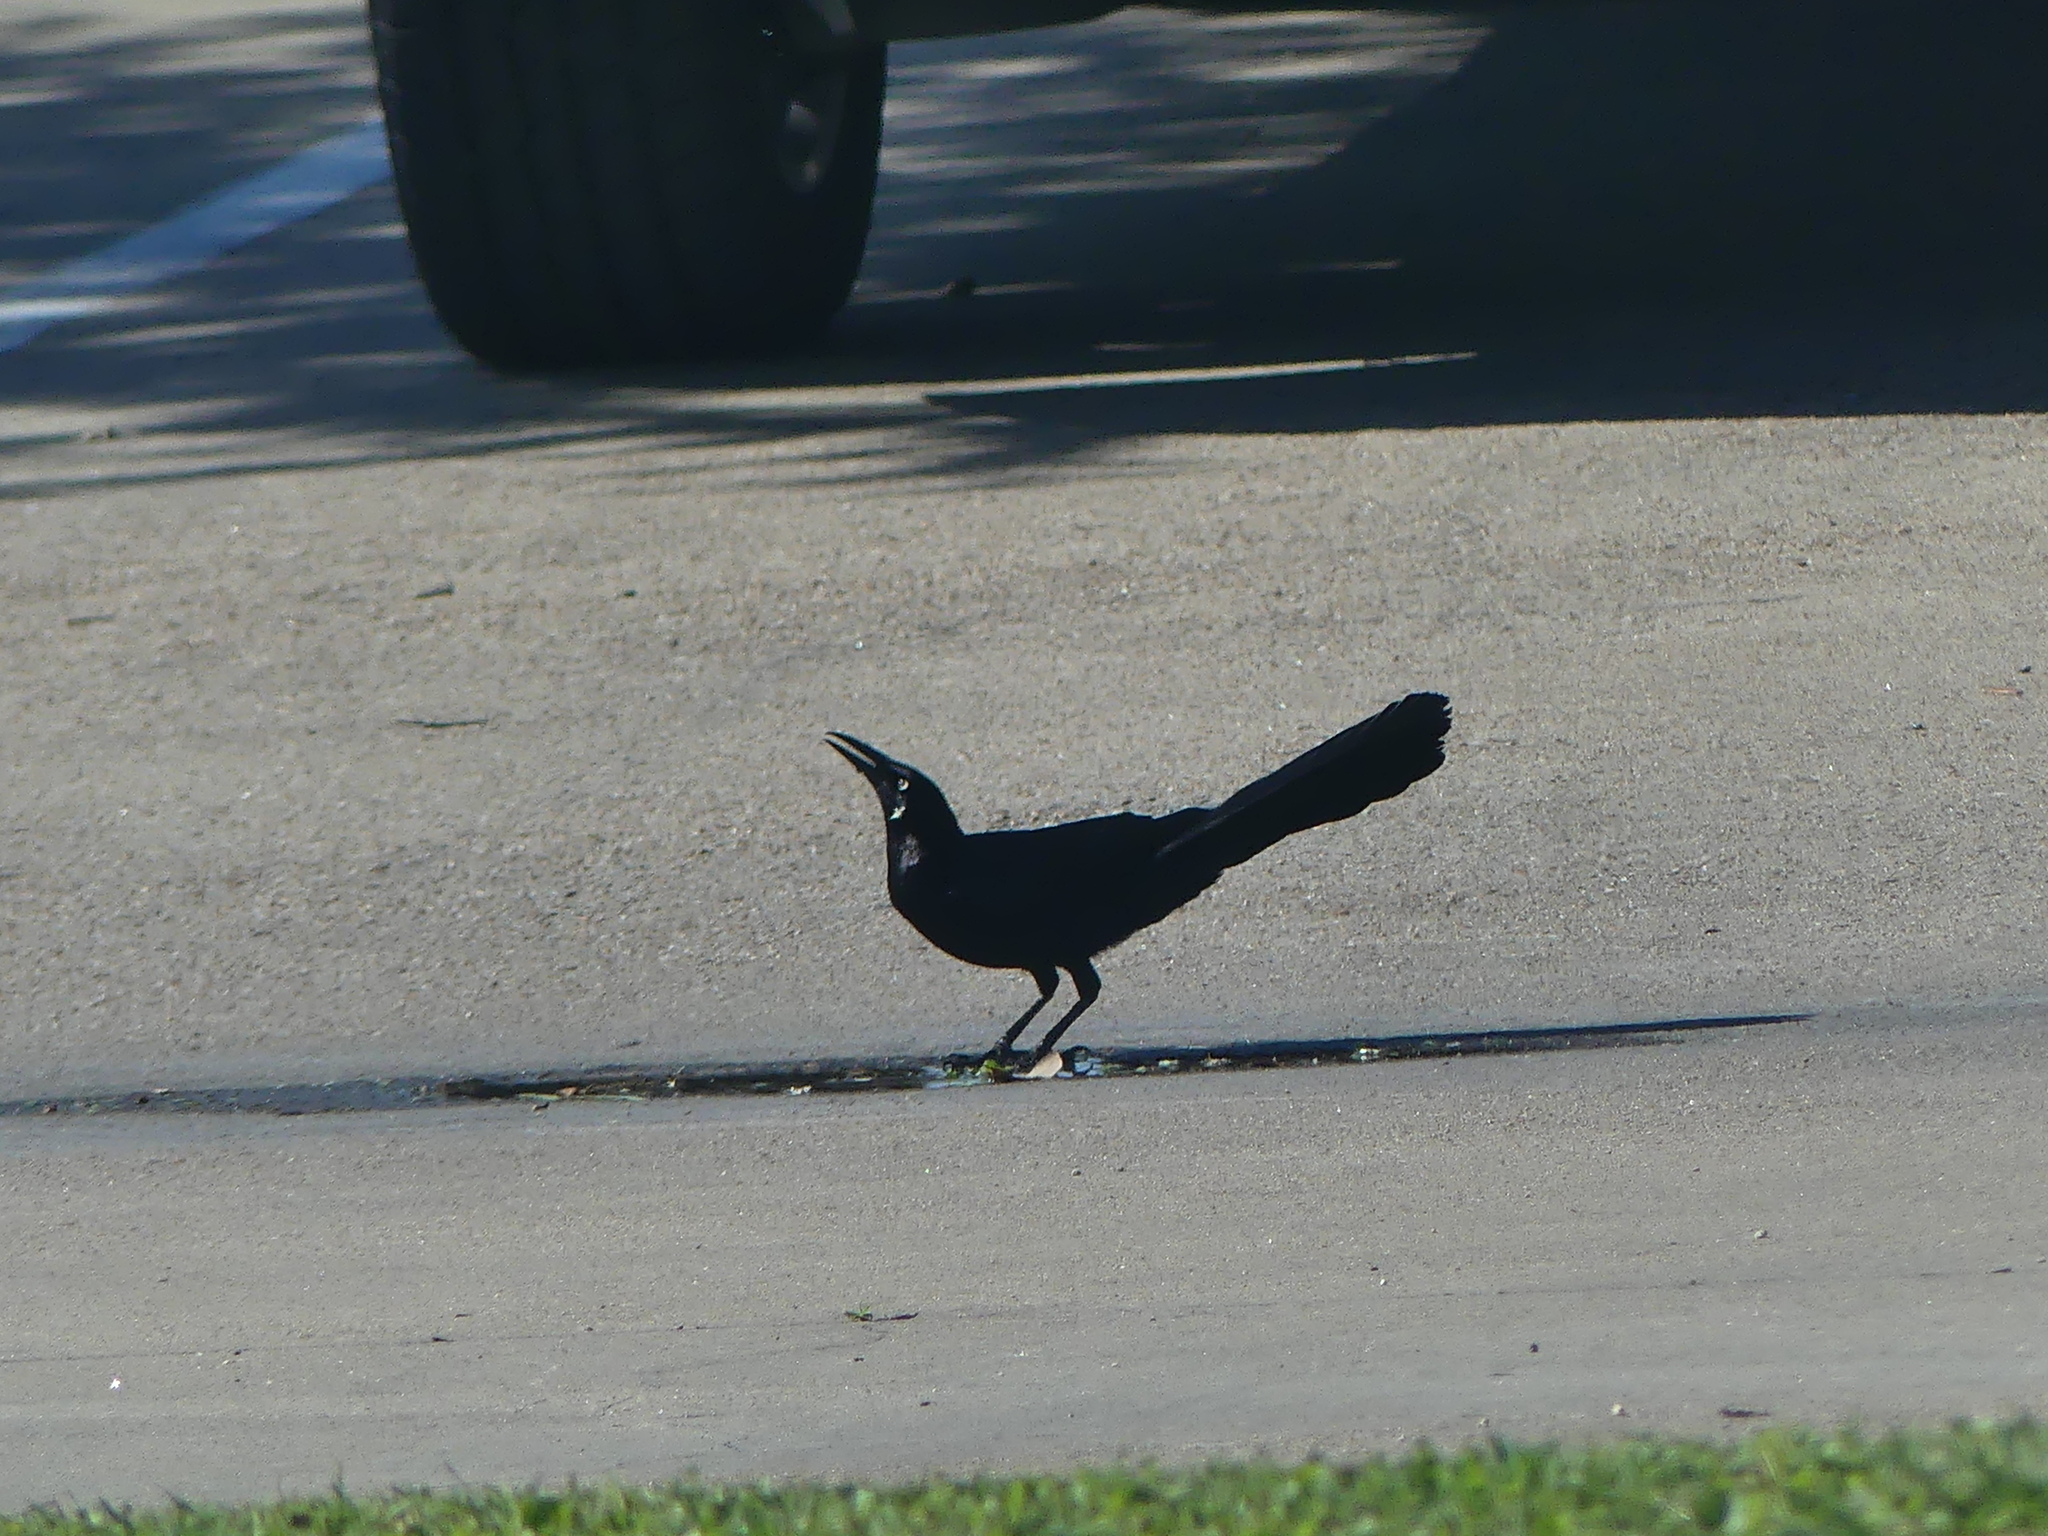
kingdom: Animalia
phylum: Chordata
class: Aves
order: Passeriformes
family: Icteridae
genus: Quiscalus
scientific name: Quiscalus mexicanus
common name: Great-tailed grackle
